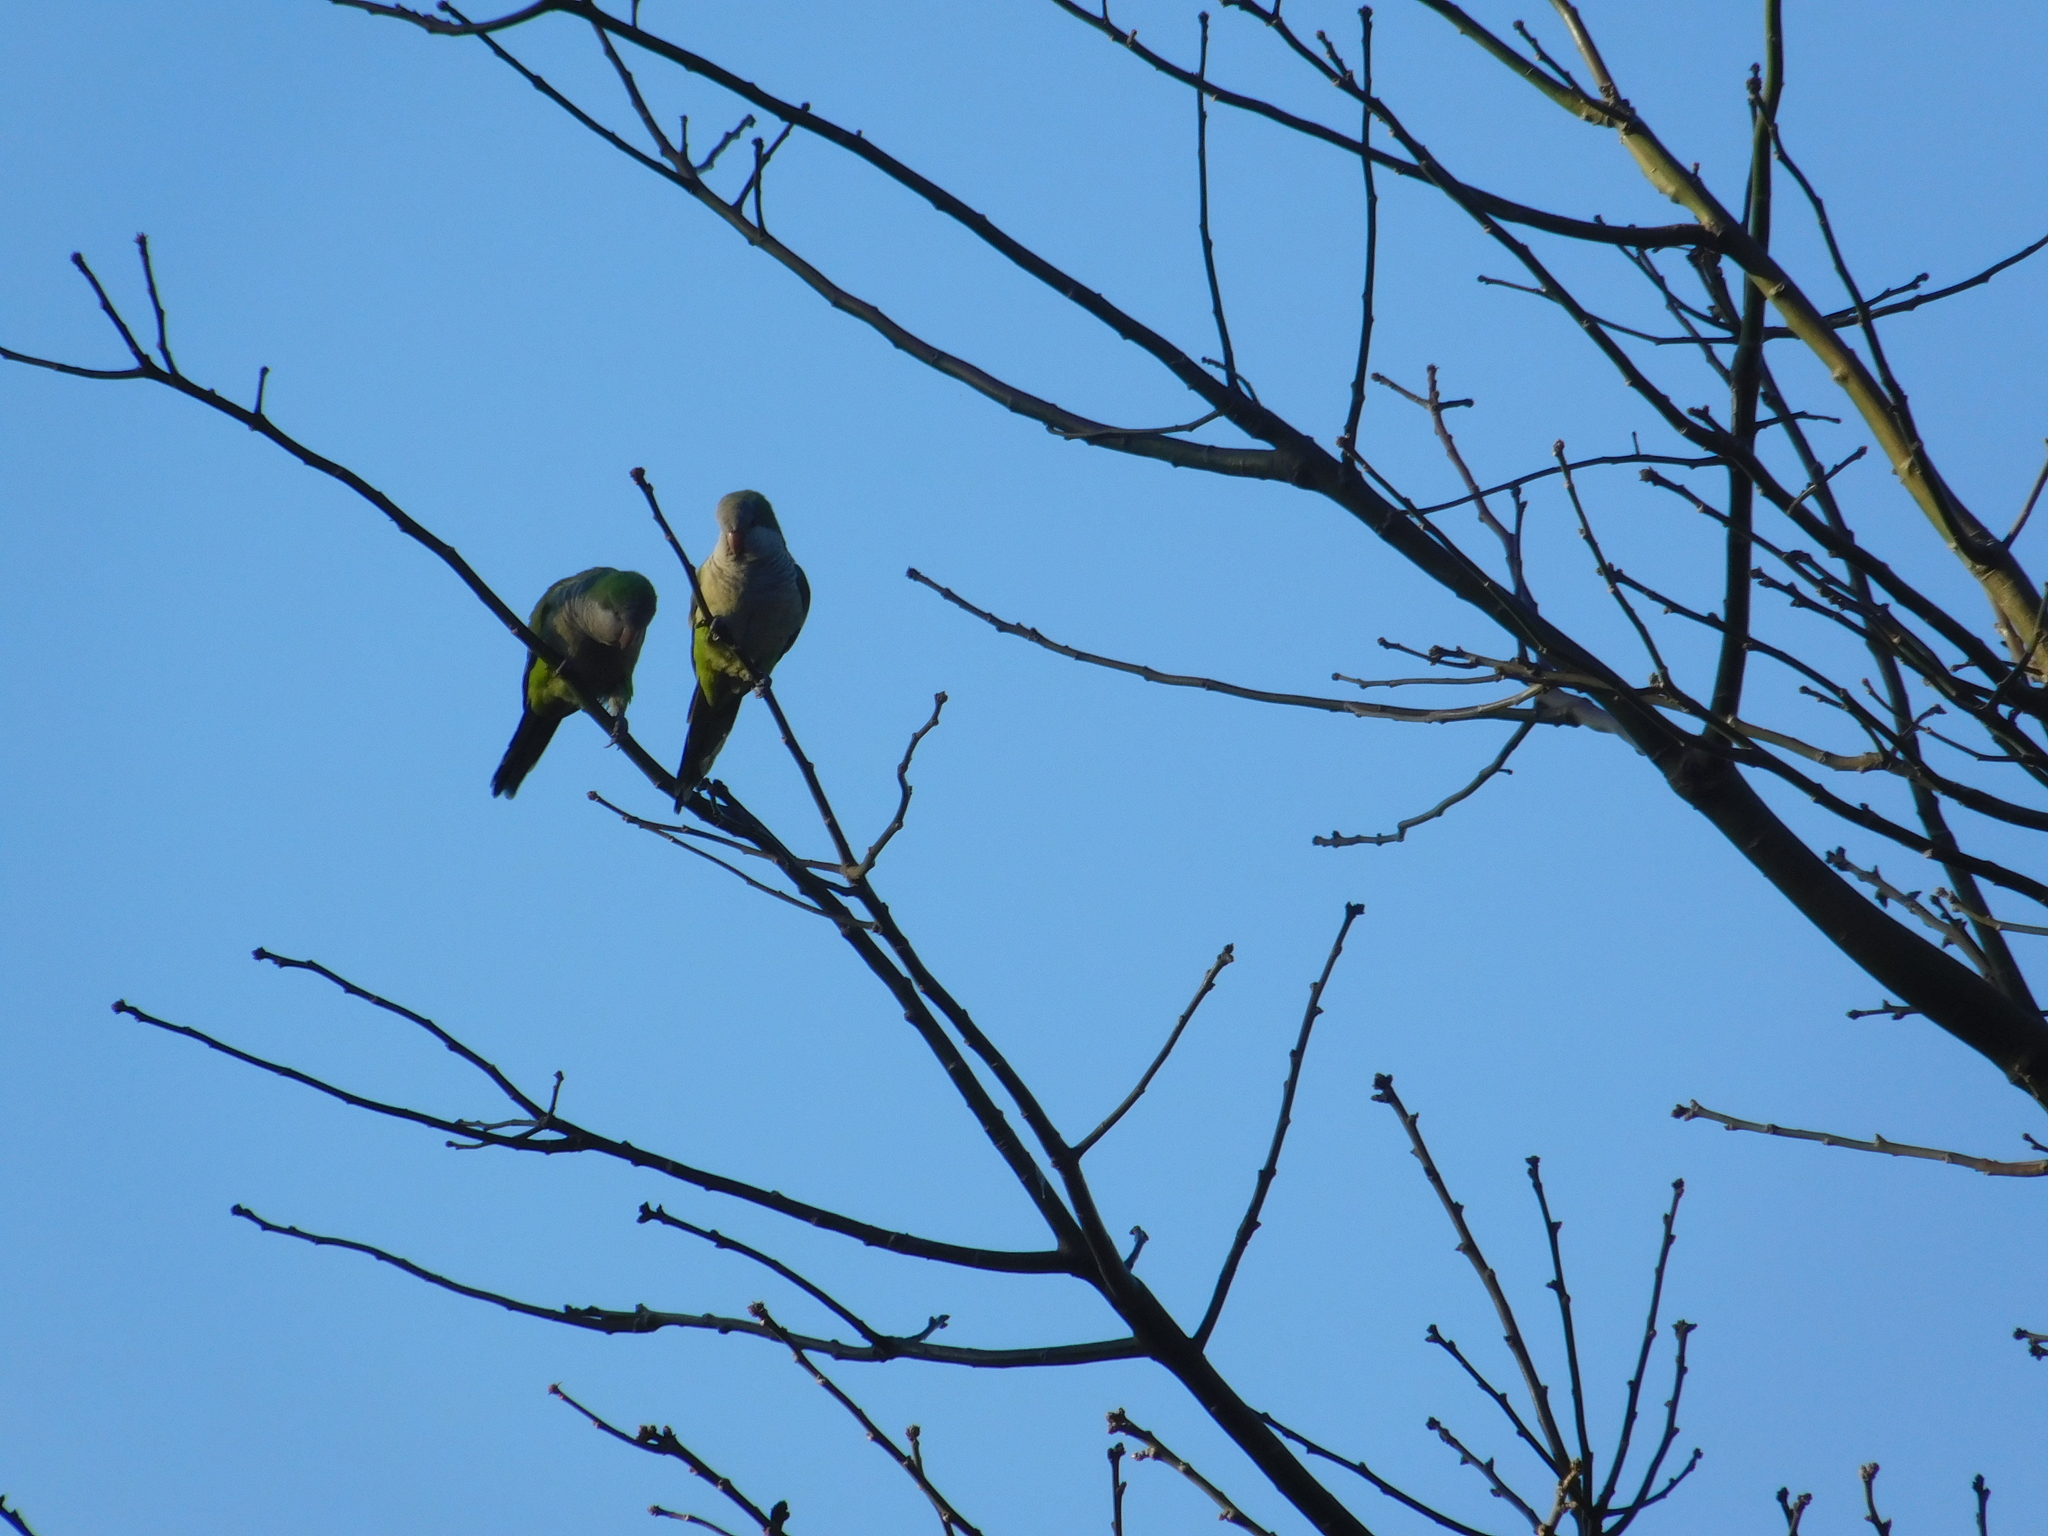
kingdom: Animalia
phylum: Chordata
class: Aves
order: Psittaciformes
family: Psittacidae
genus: Myiopsitta
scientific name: Myiopsitta monachus
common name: Monk parakeet
